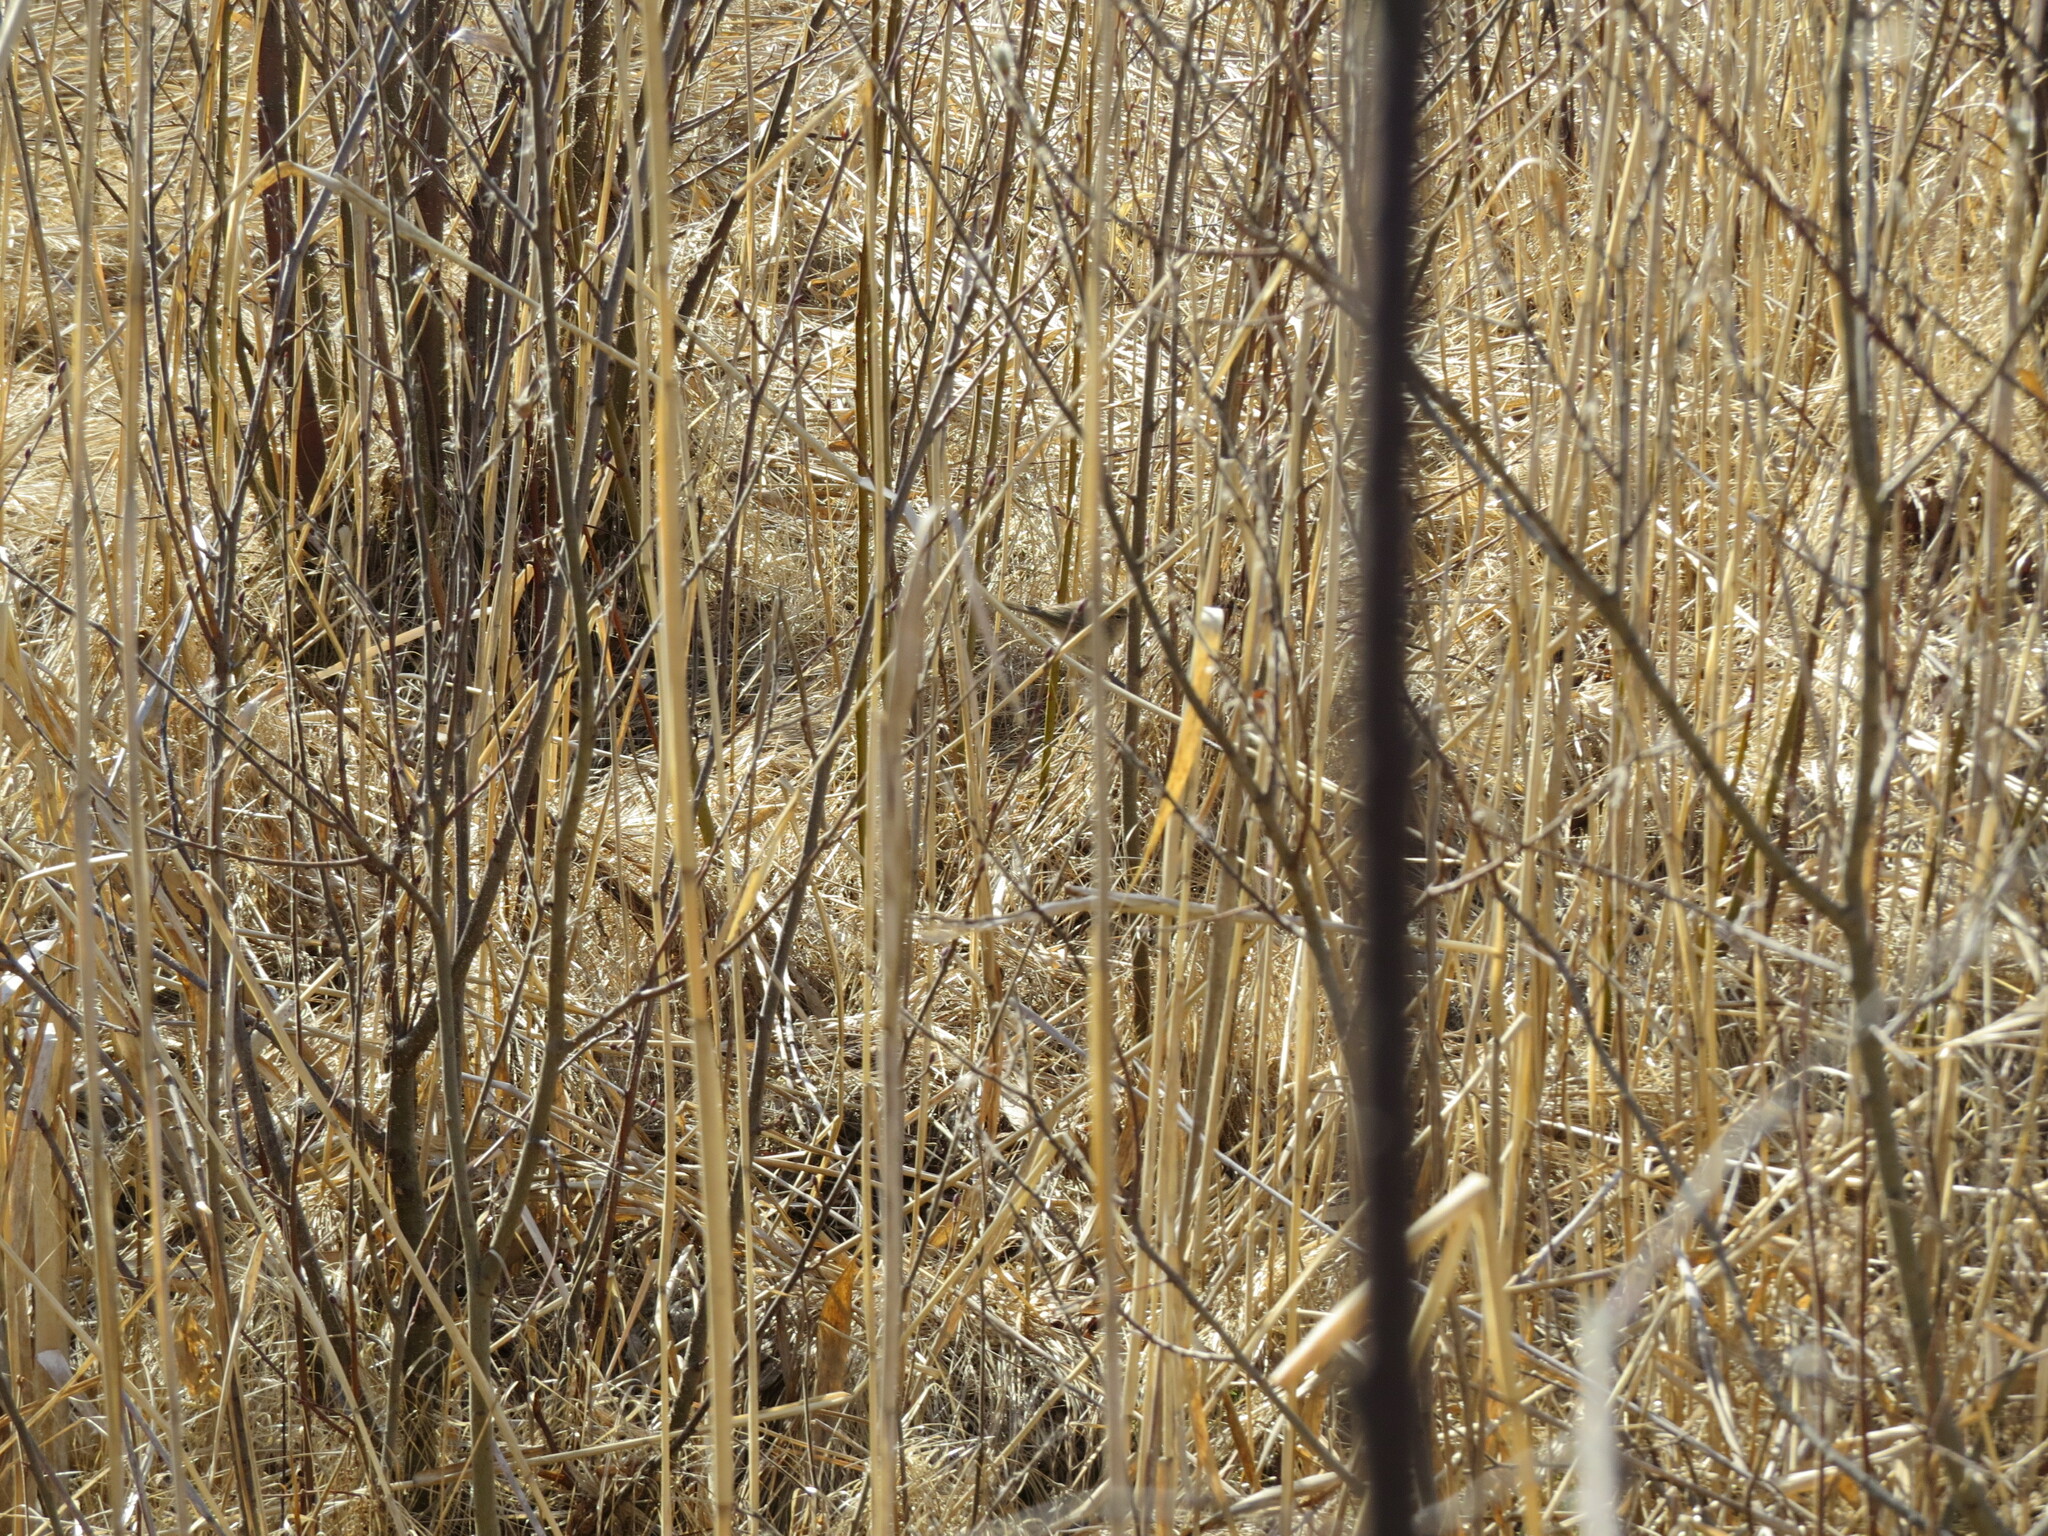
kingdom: Animalia
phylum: Chordata
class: Aves
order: Passeriformes
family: Phylloscopidae
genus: Phylloscopus
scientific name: Phylloscopus collybita
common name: Common chiffchaff
